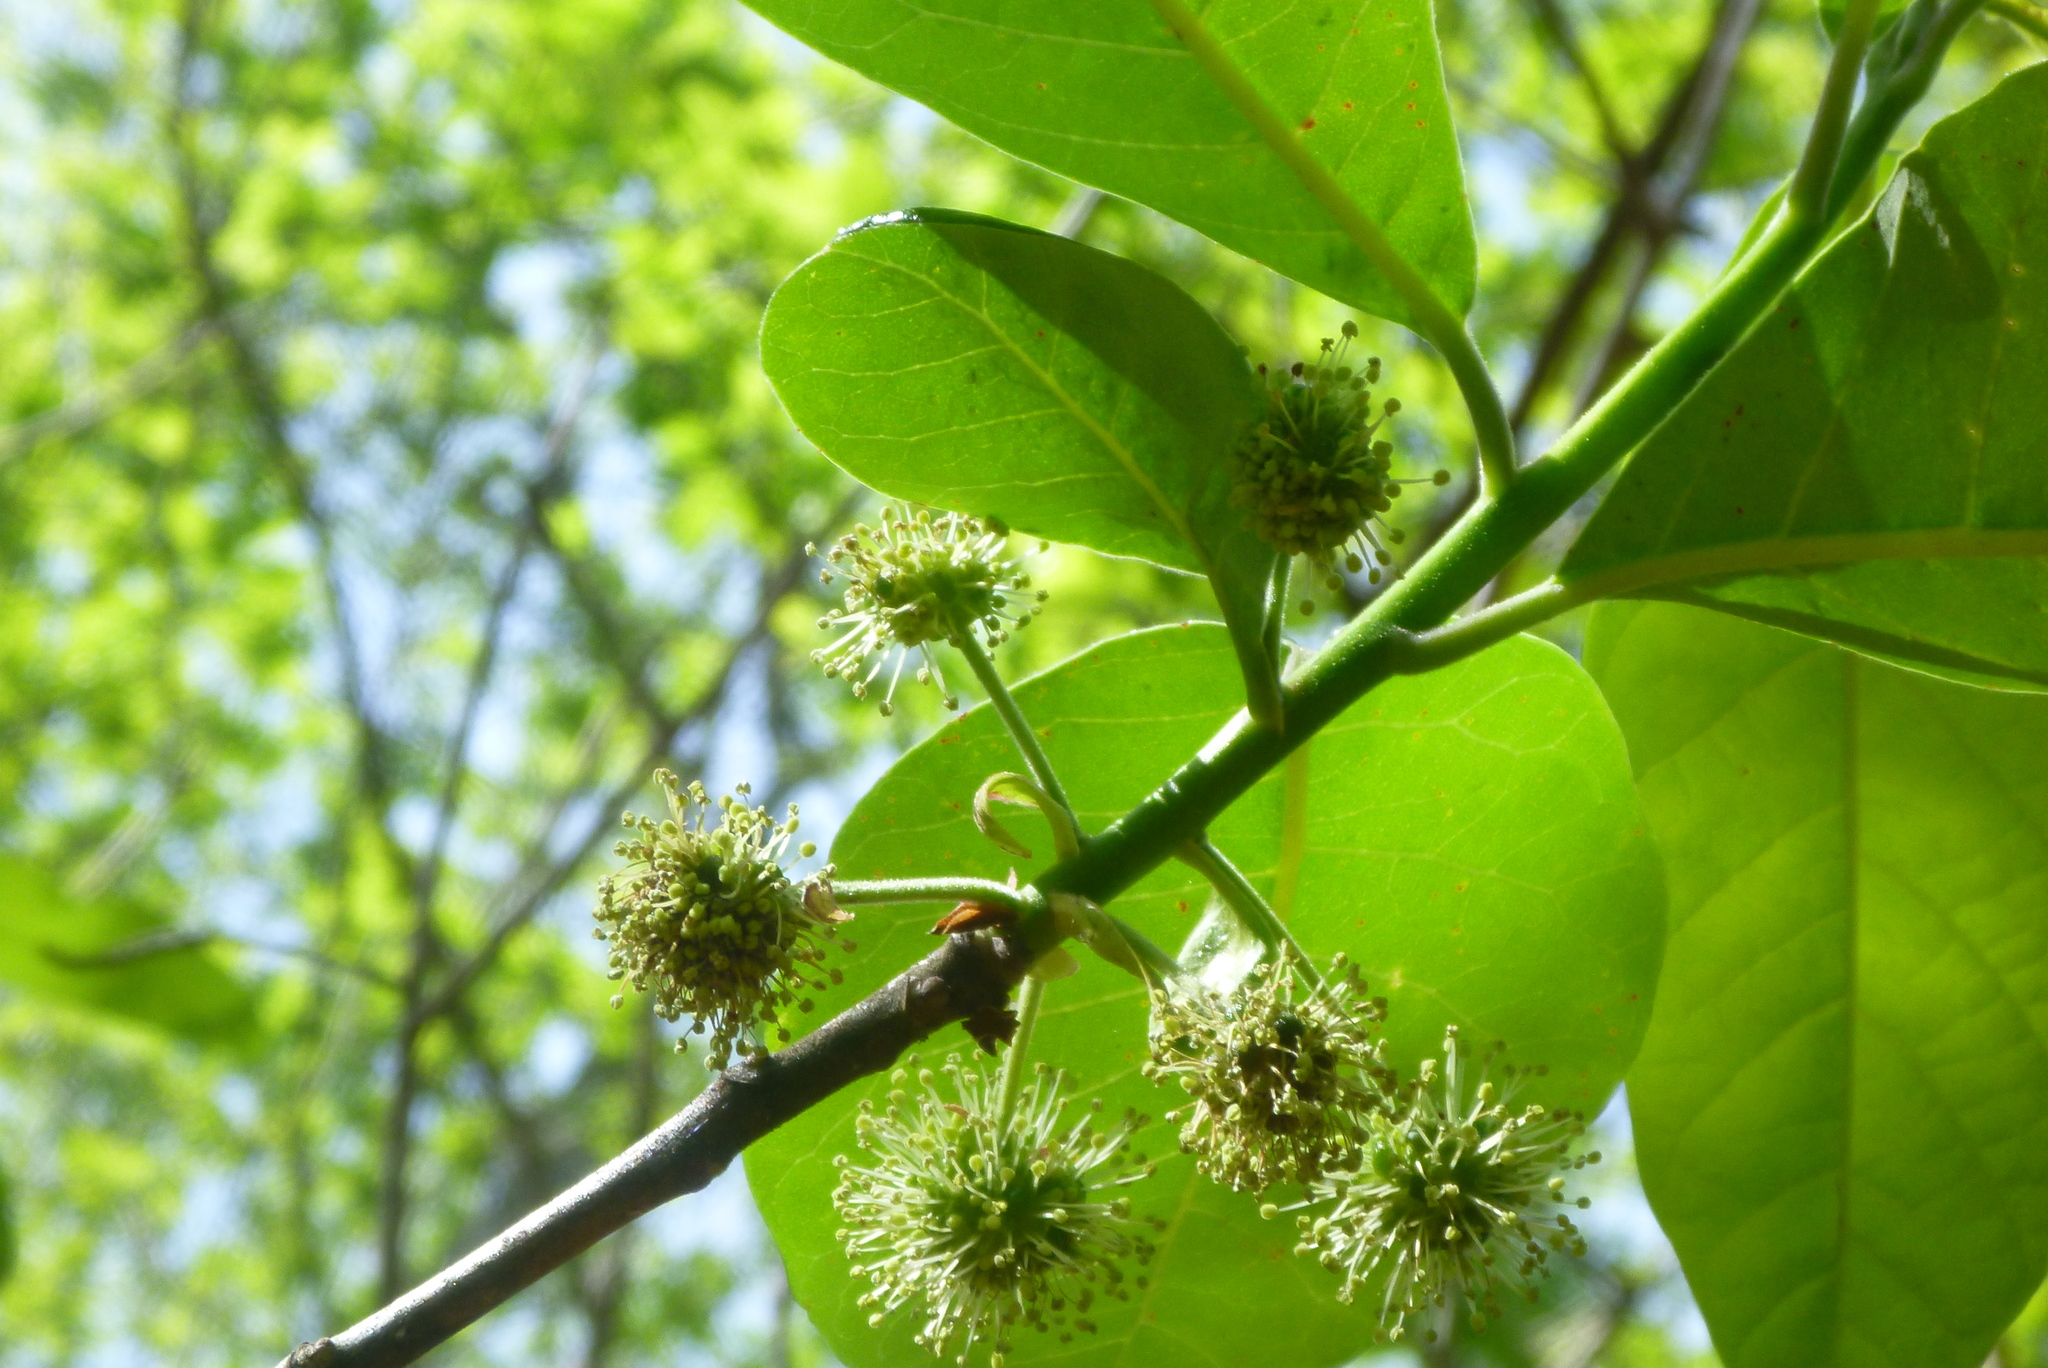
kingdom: Plantae
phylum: Tracheophyta
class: Magnoliopsida
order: Cornales
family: Nyssaceae
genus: Nyssa
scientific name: Nyssa ogeche
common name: Ogeechee tupelo
